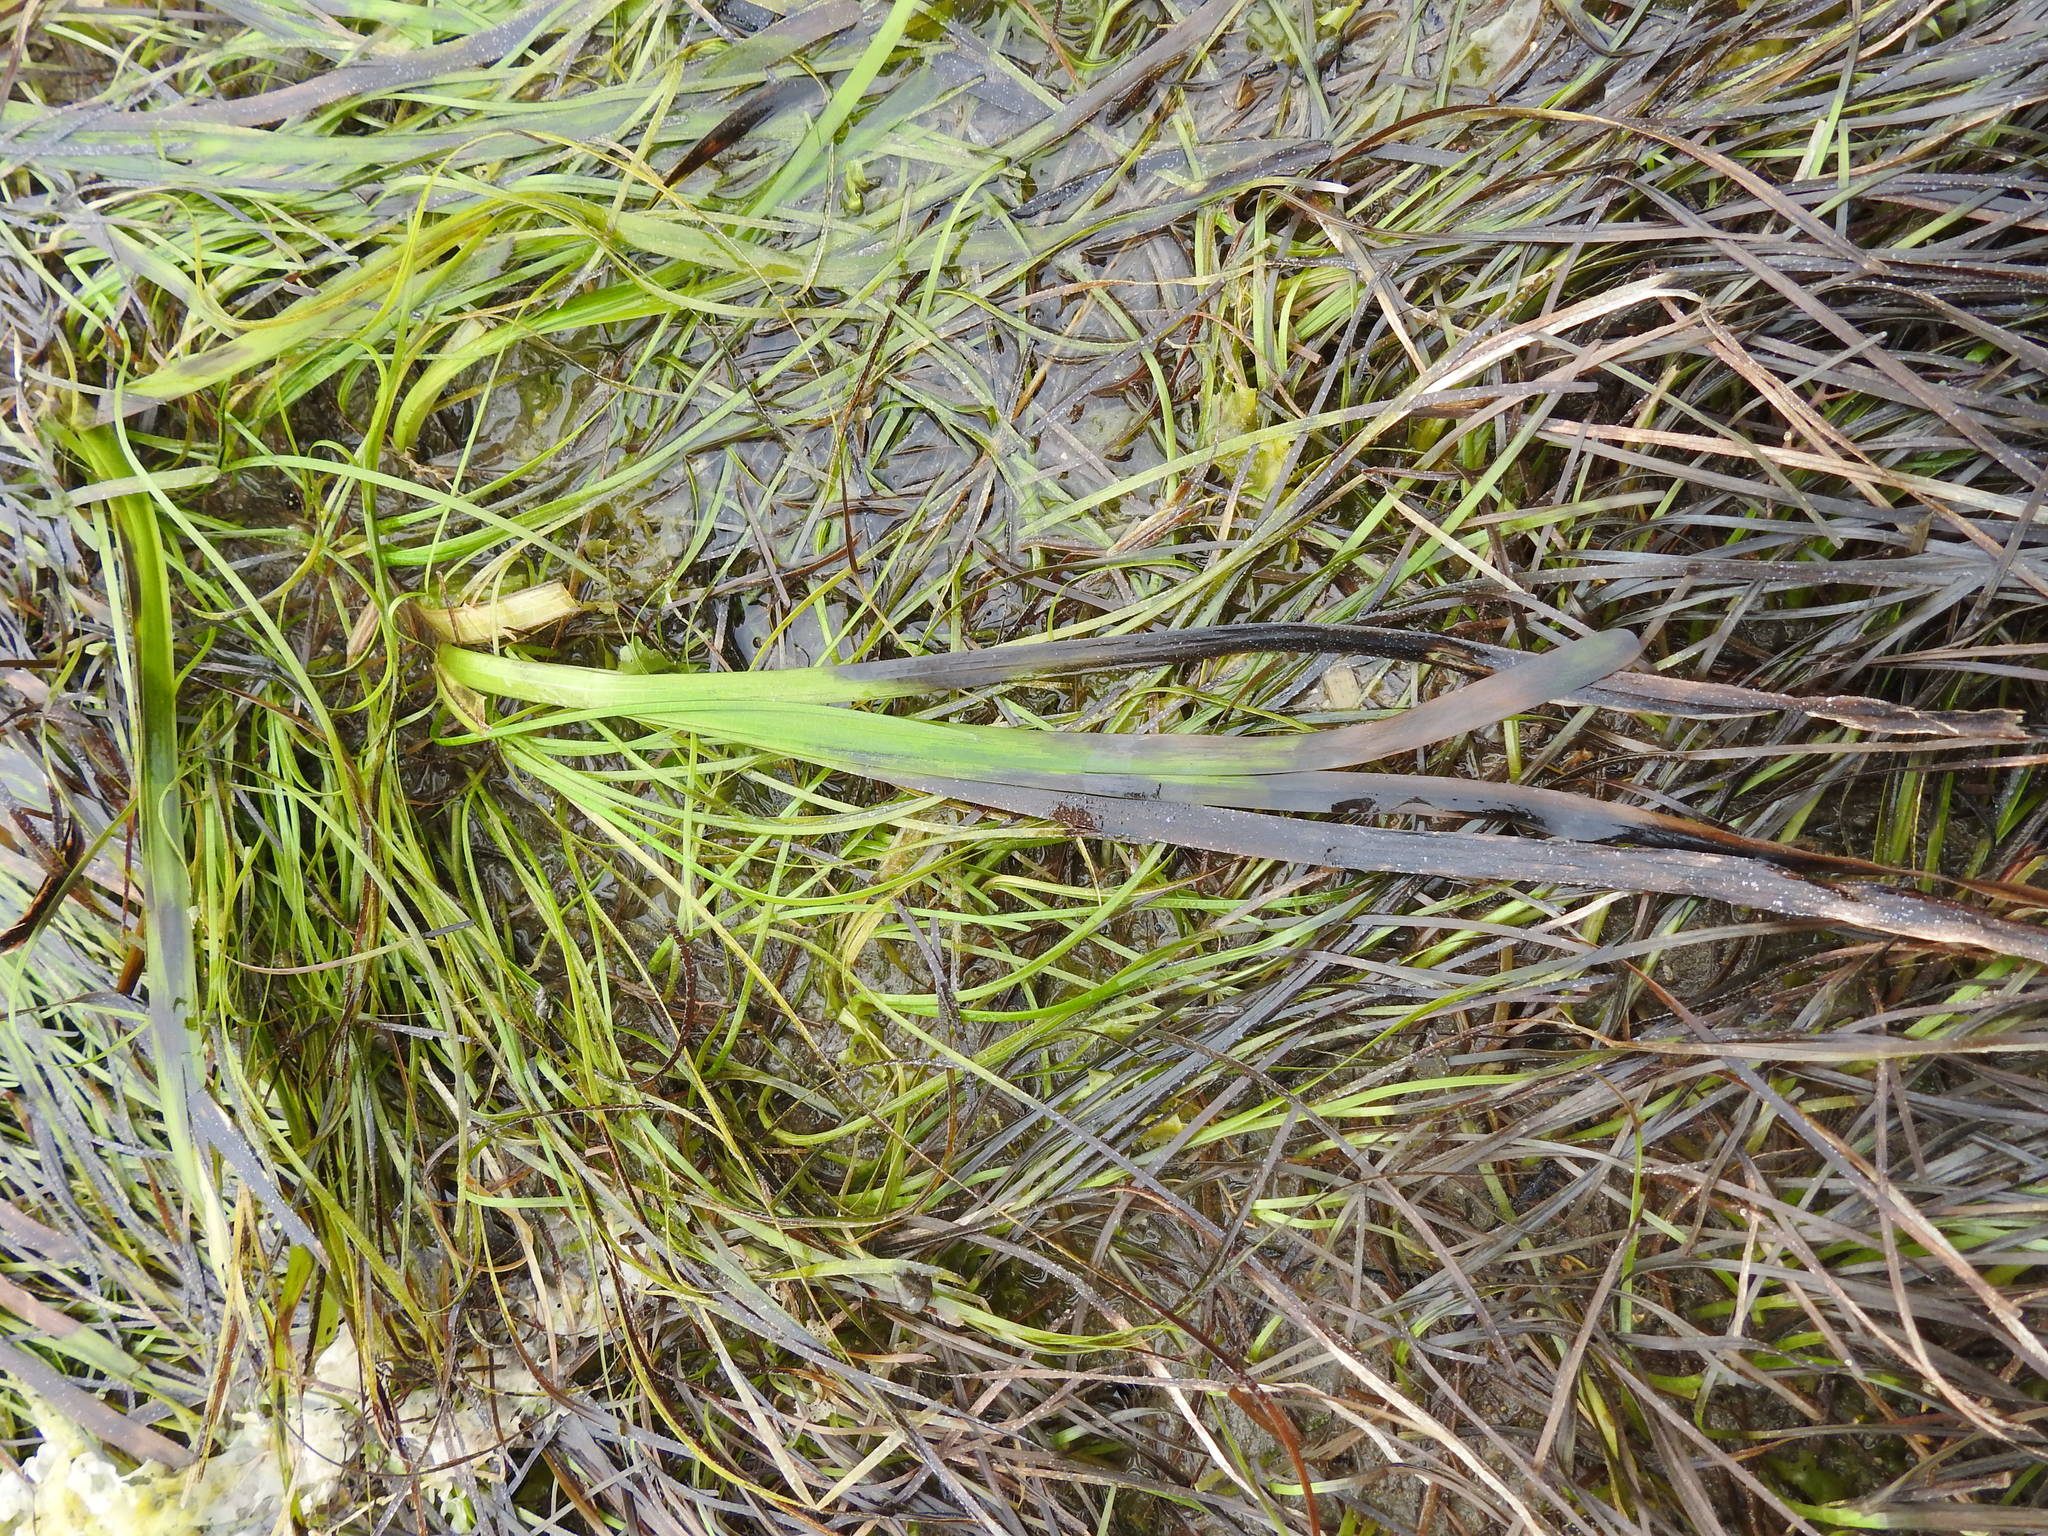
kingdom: Plantae
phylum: Tracheophyta
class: Liliopsida
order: Alismatales
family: Zosteraceae
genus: Zostera
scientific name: Zostera marina
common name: Eelgrass
